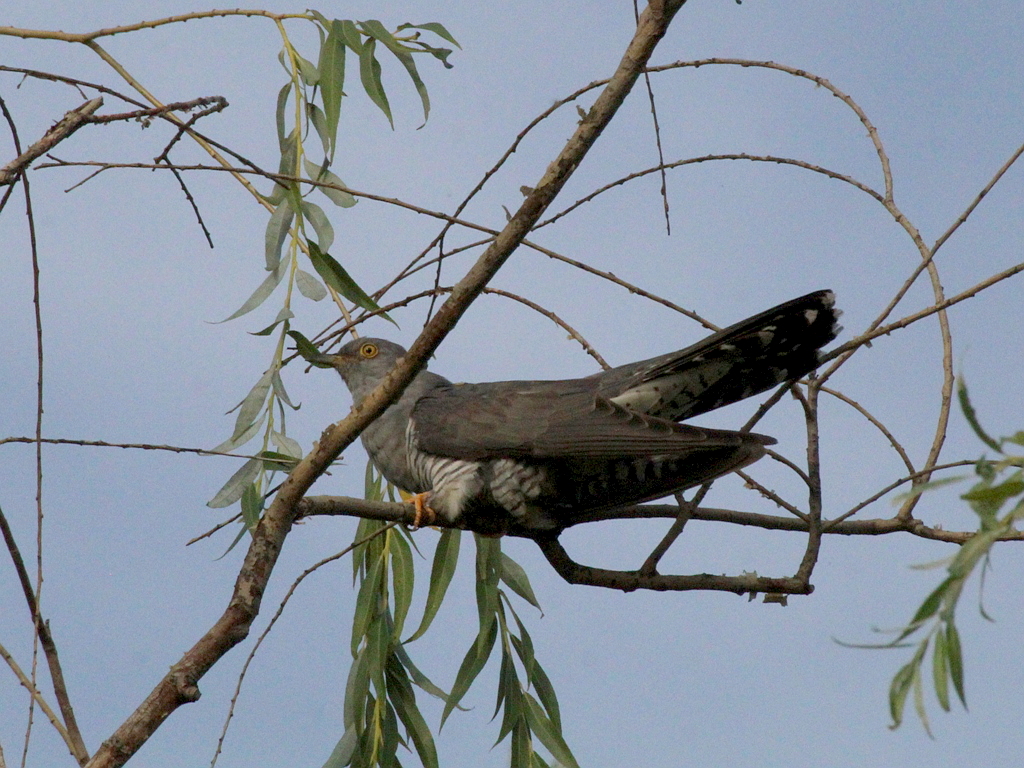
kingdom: Animalia
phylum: Chordata
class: Aves
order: Cuculiformes
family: Cuculidae
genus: Cuculus
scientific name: Cuculus canorus
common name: Common cuckoo
